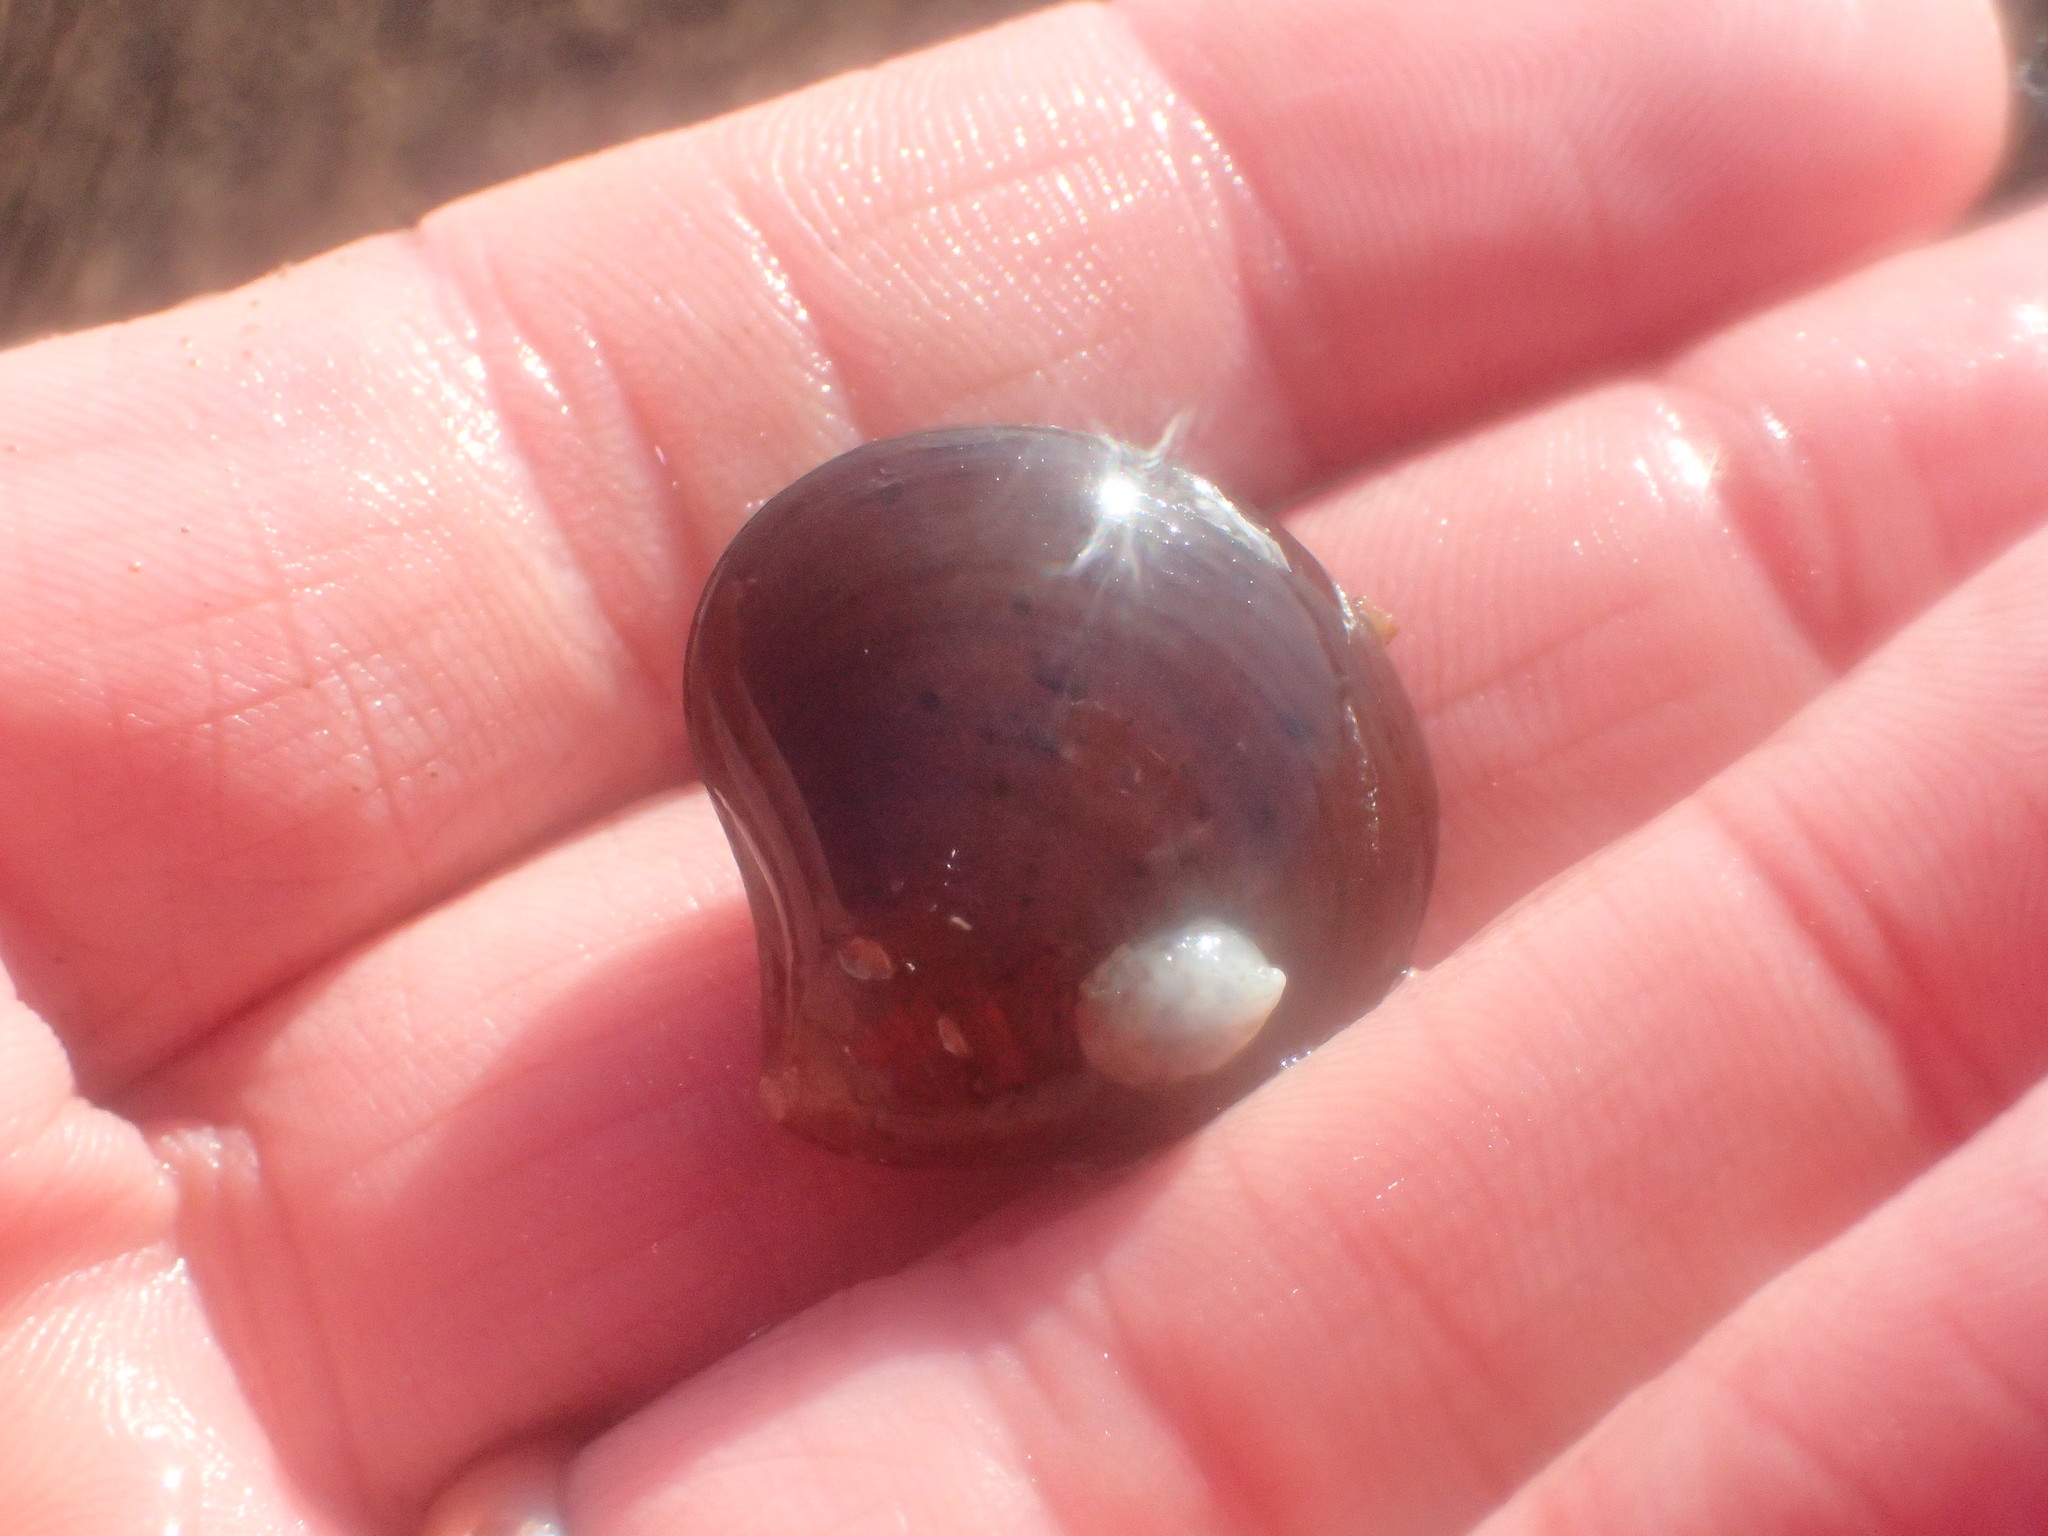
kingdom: Animalia
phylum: Mollusca
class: Bivalvia
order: Cardiida
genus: Isocrassina
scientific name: Isocrassina
